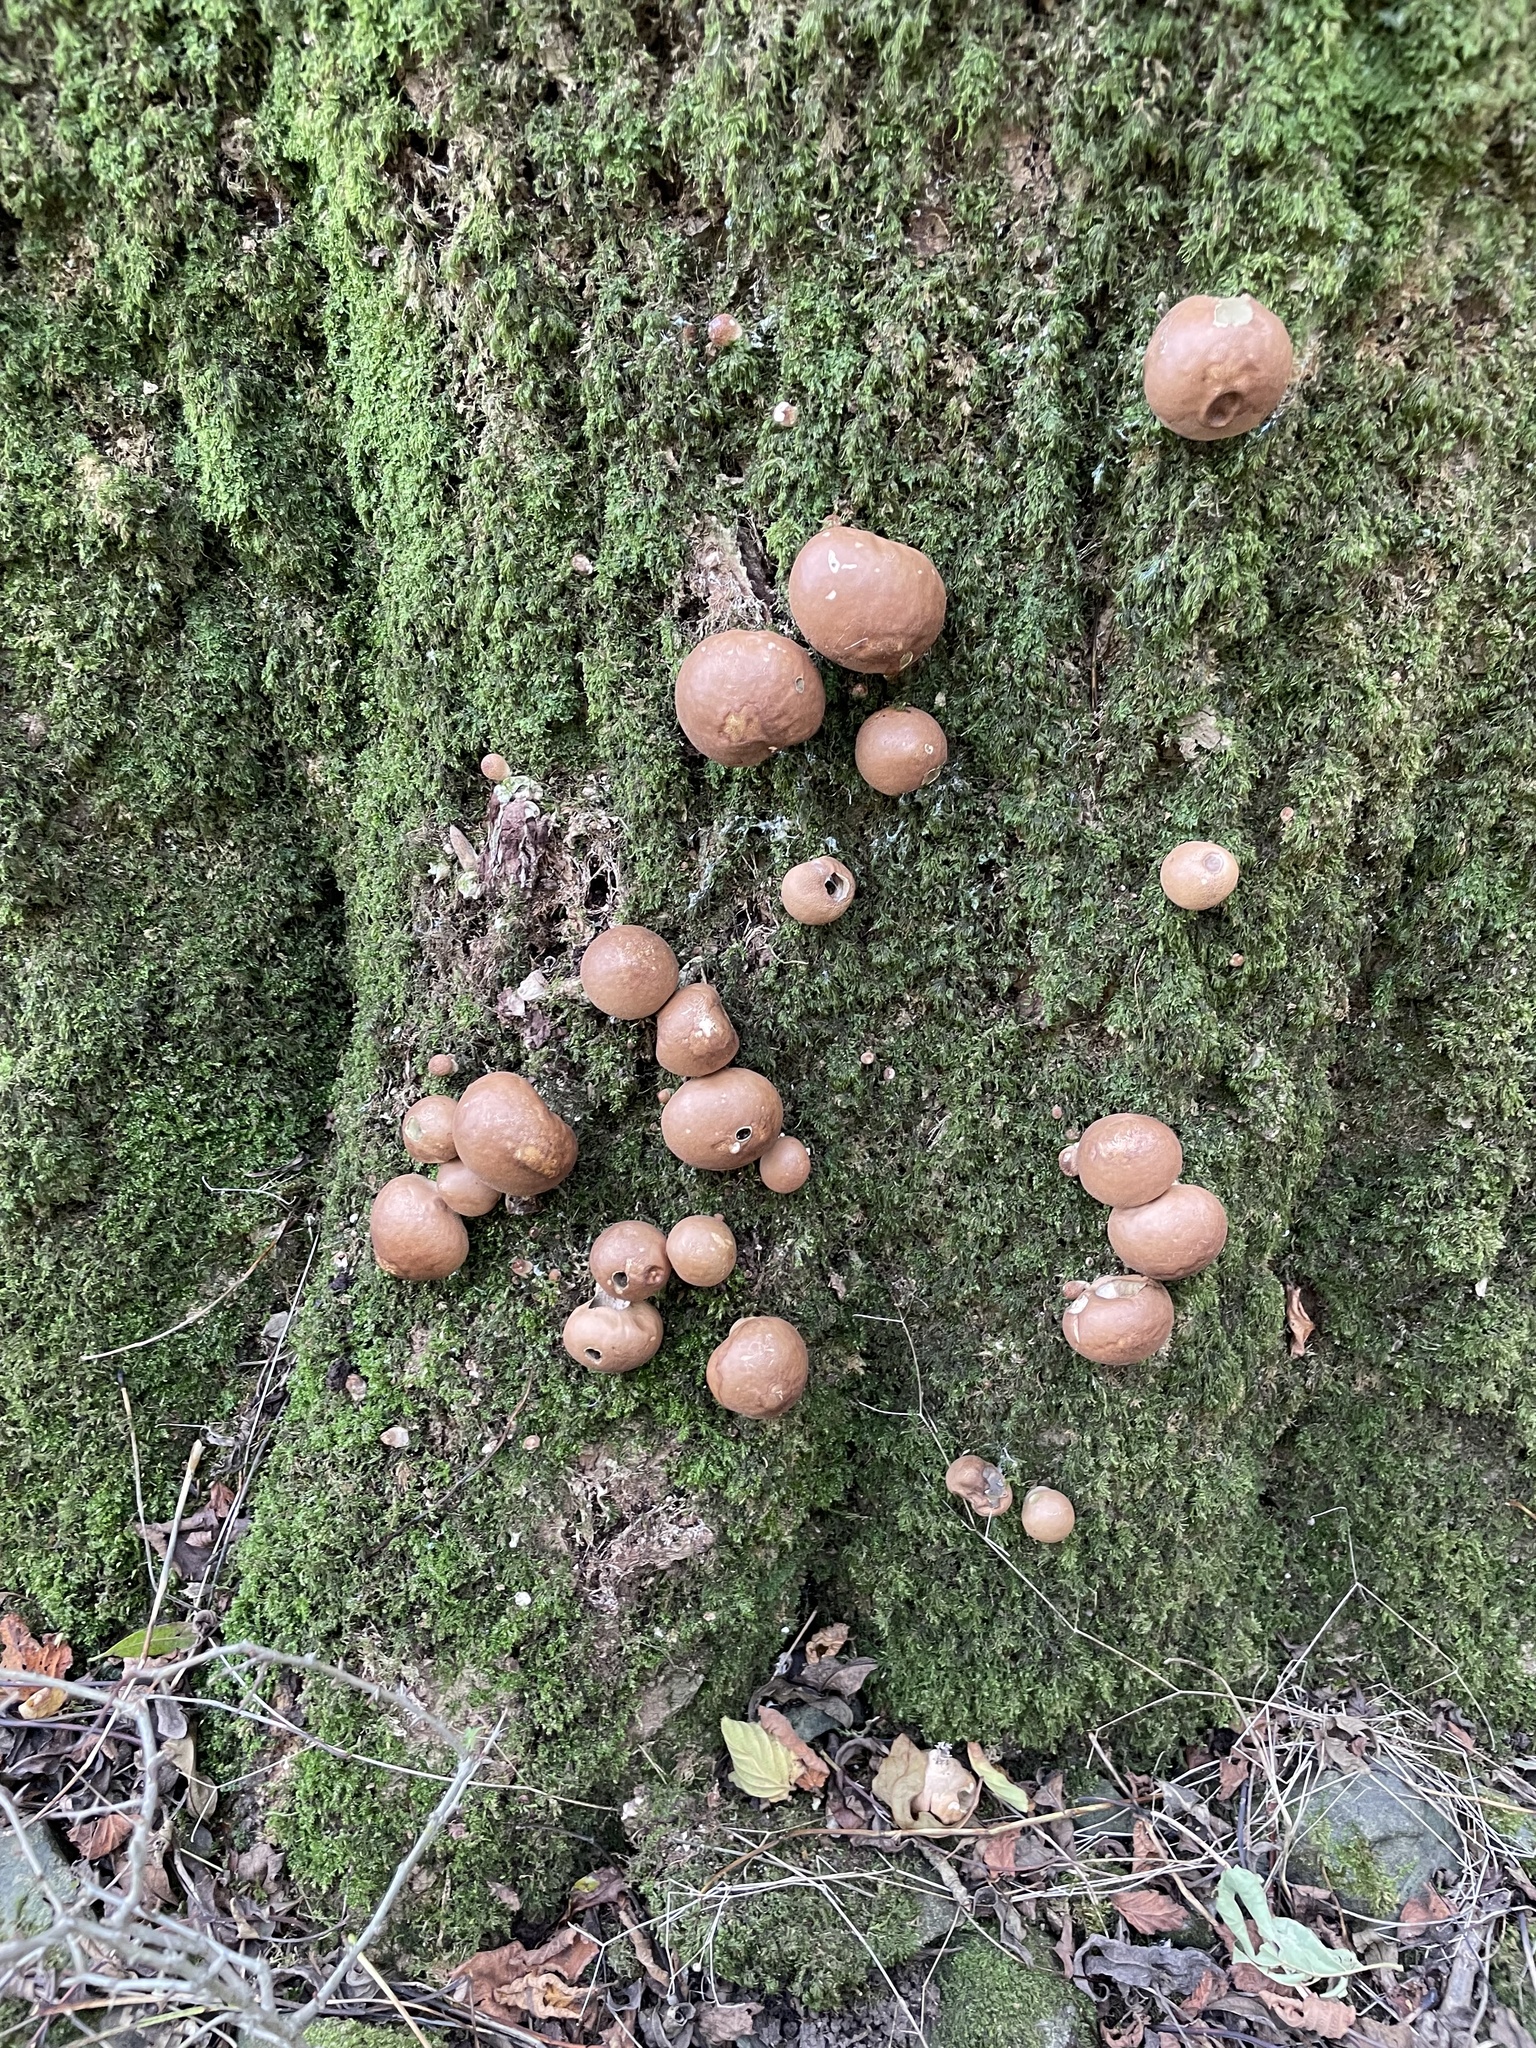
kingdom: Fungi
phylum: Basidiomycota
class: Agaricomycetes
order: Agaricales
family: Lycoperdaceae
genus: Apioperdon
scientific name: Apioperdon pyriforme
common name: Pear-shaped puffball
